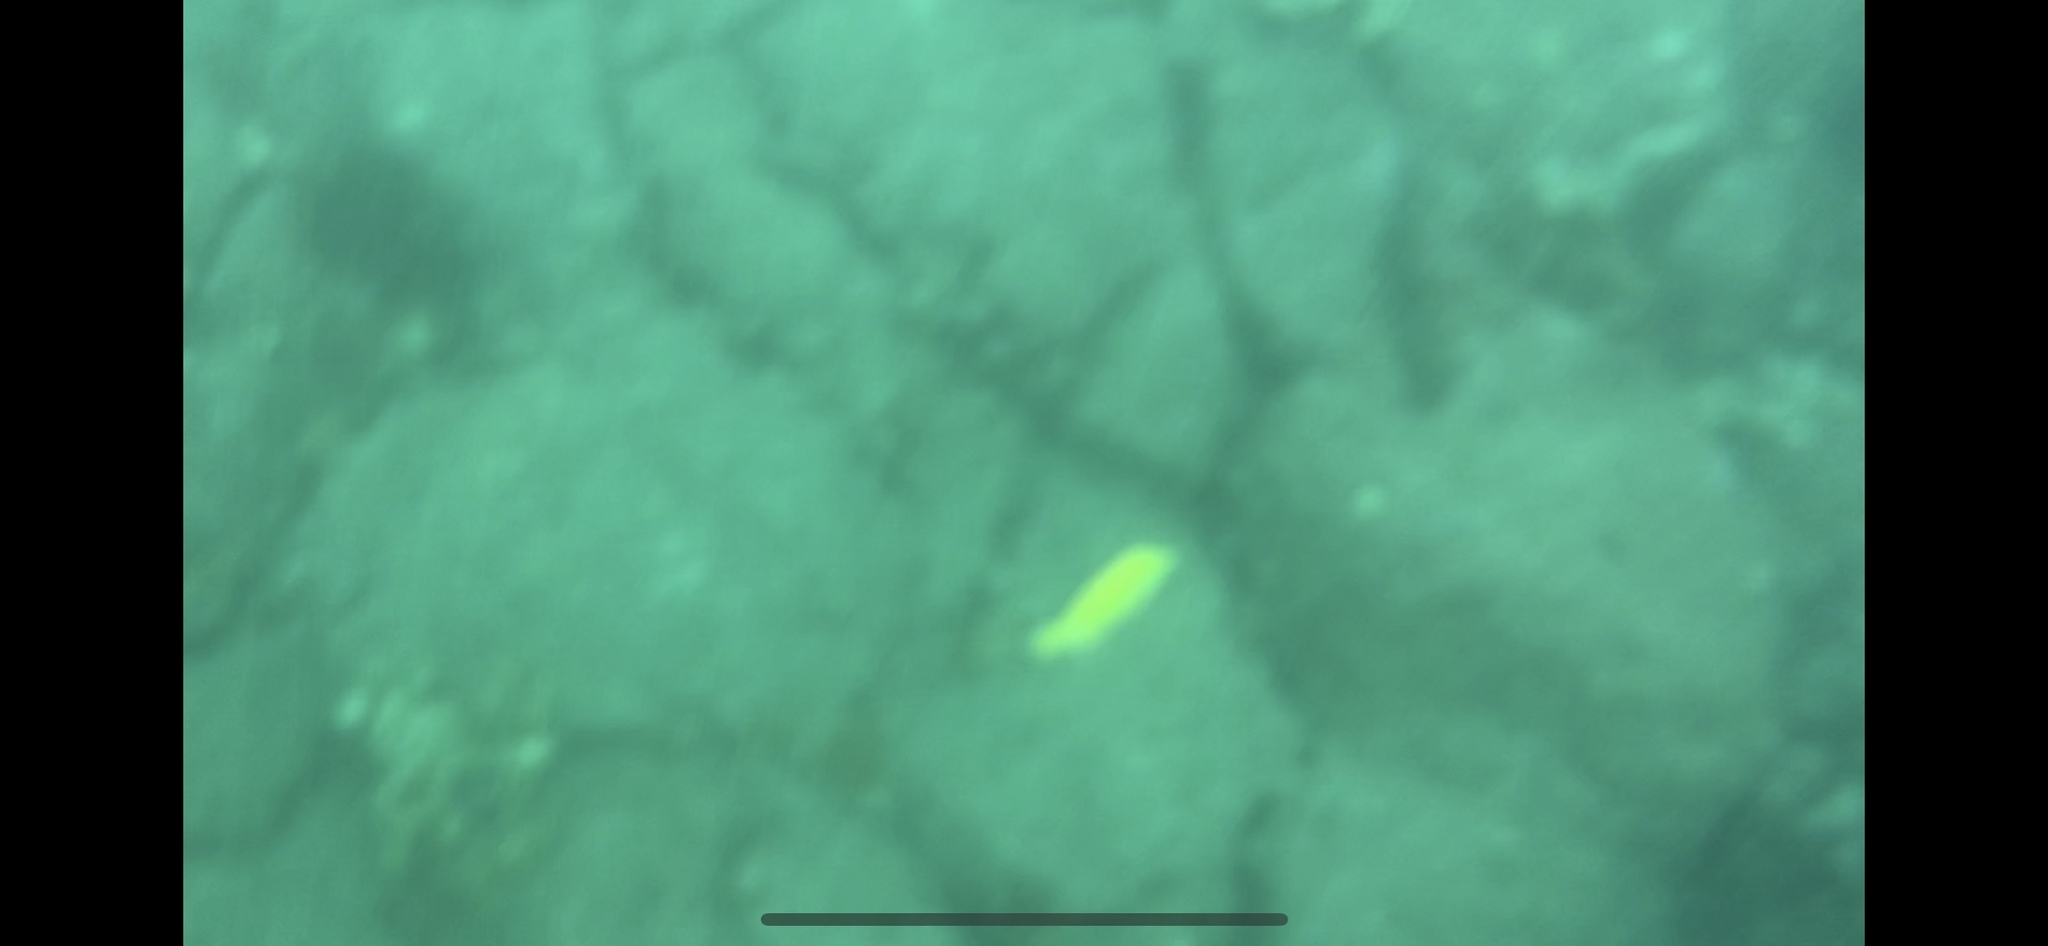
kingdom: Animalia
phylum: Chordata
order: Perciformes
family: Acanthuridae
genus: Zebrasoma
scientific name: Zebrasoma flavescens
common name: Yellow tang
